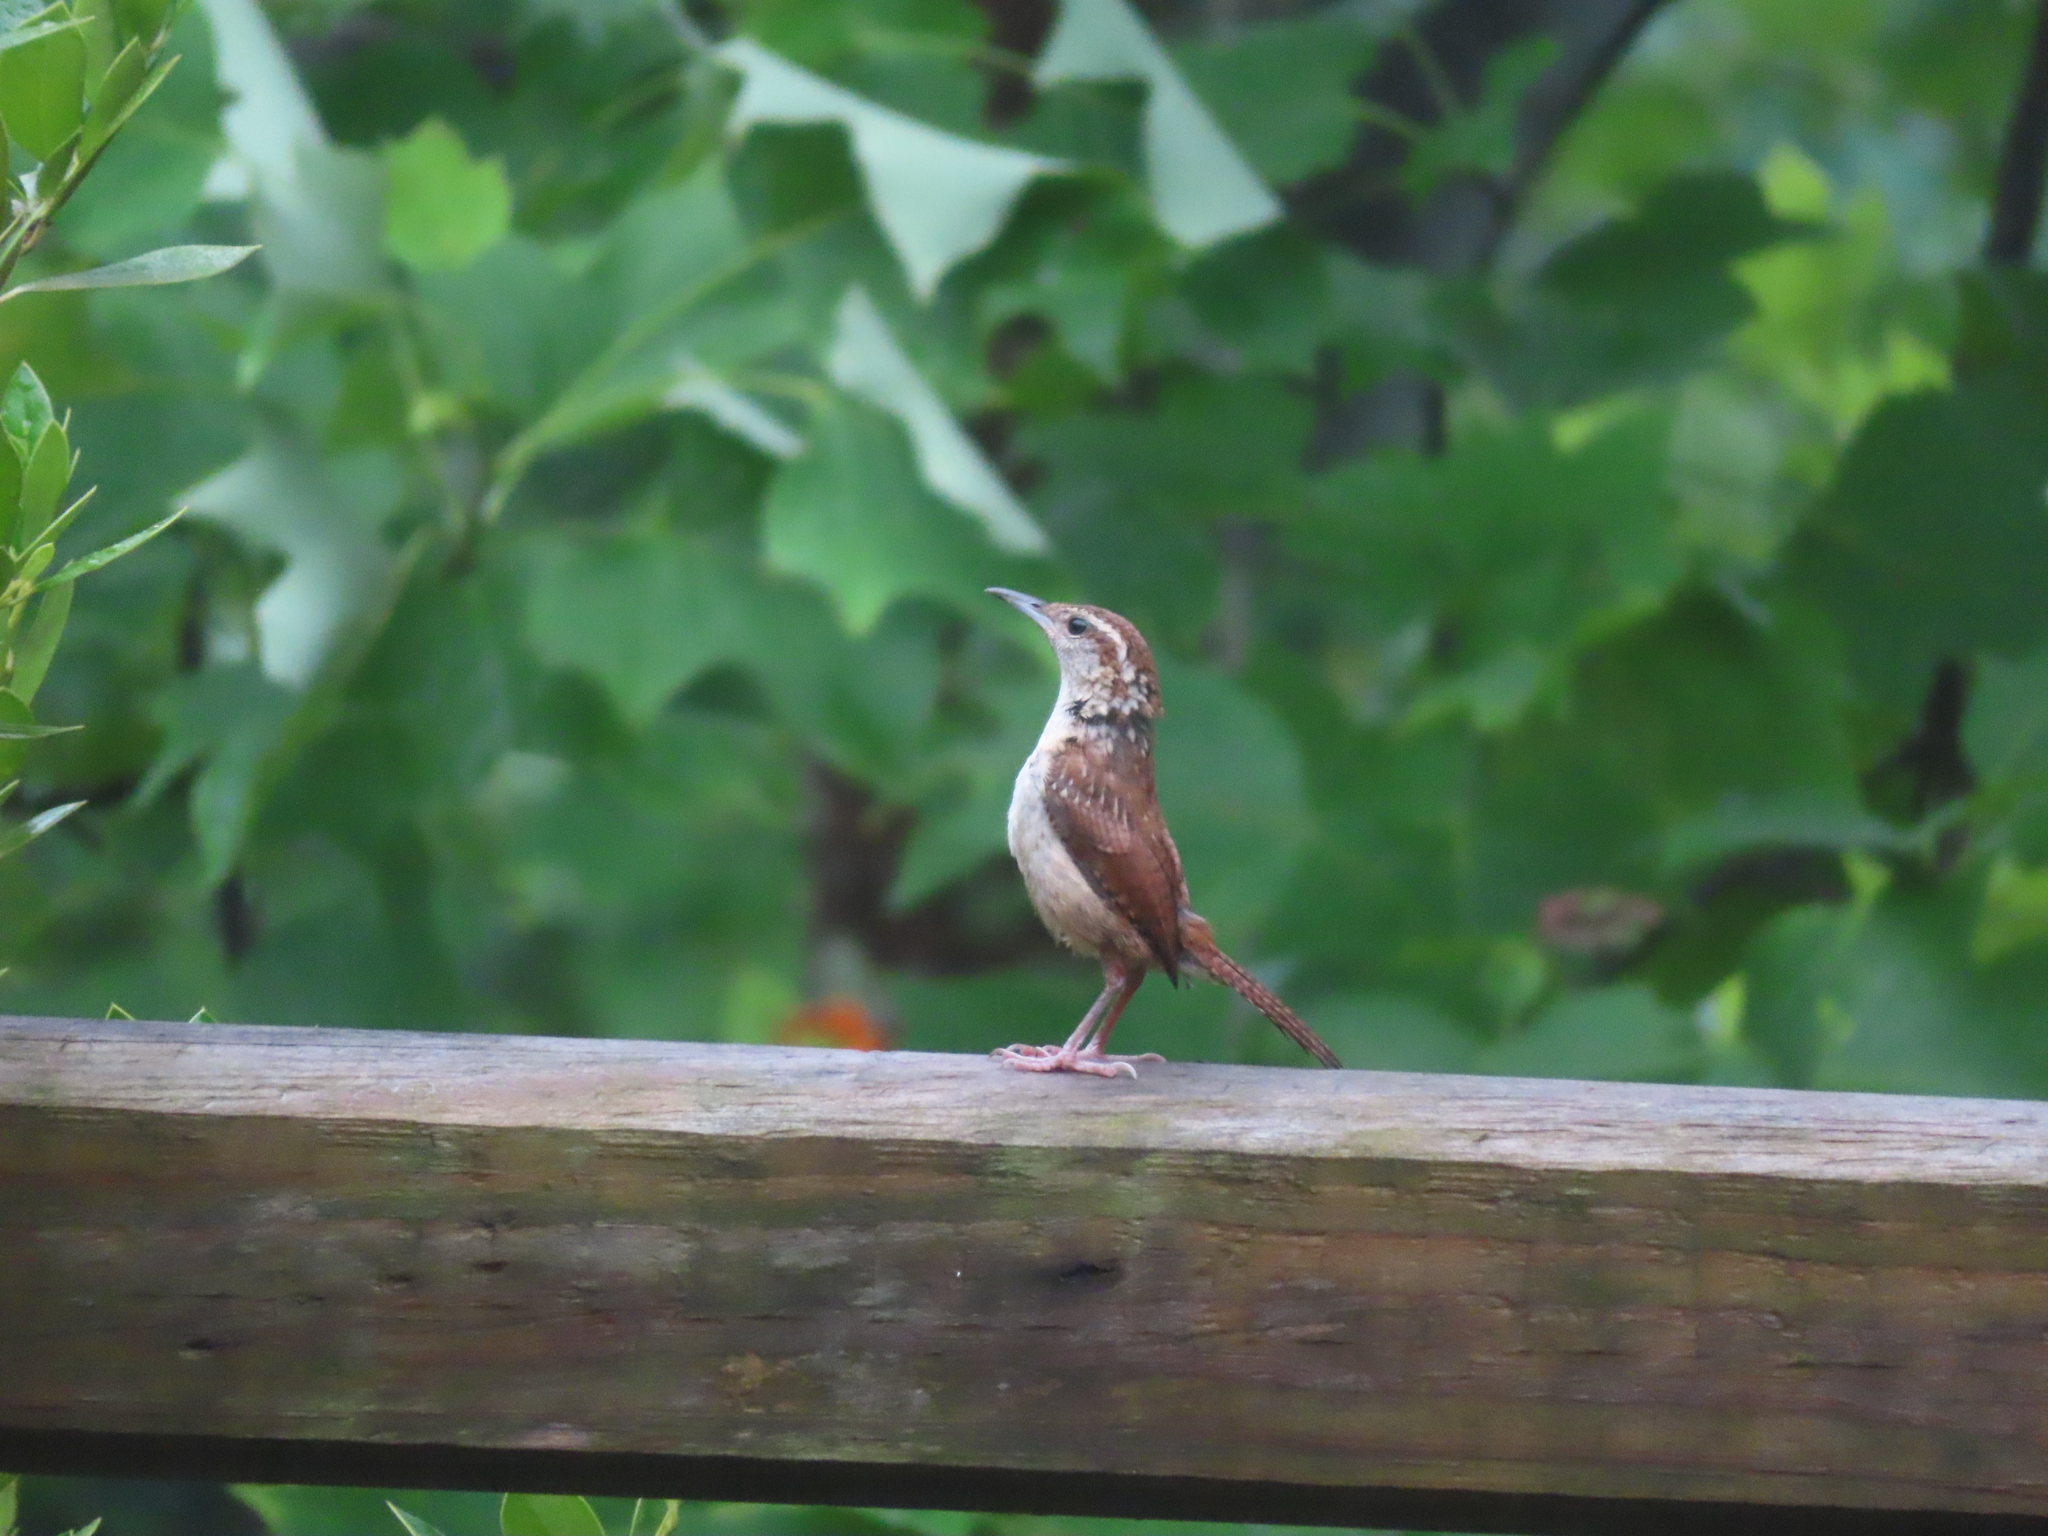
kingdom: Animalia
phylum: Chordata
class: Aves
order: Passeriformes
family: Troglodytidae
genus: Thryothorus
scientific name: Thryothorus ludovicianus
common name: Carolina wren
